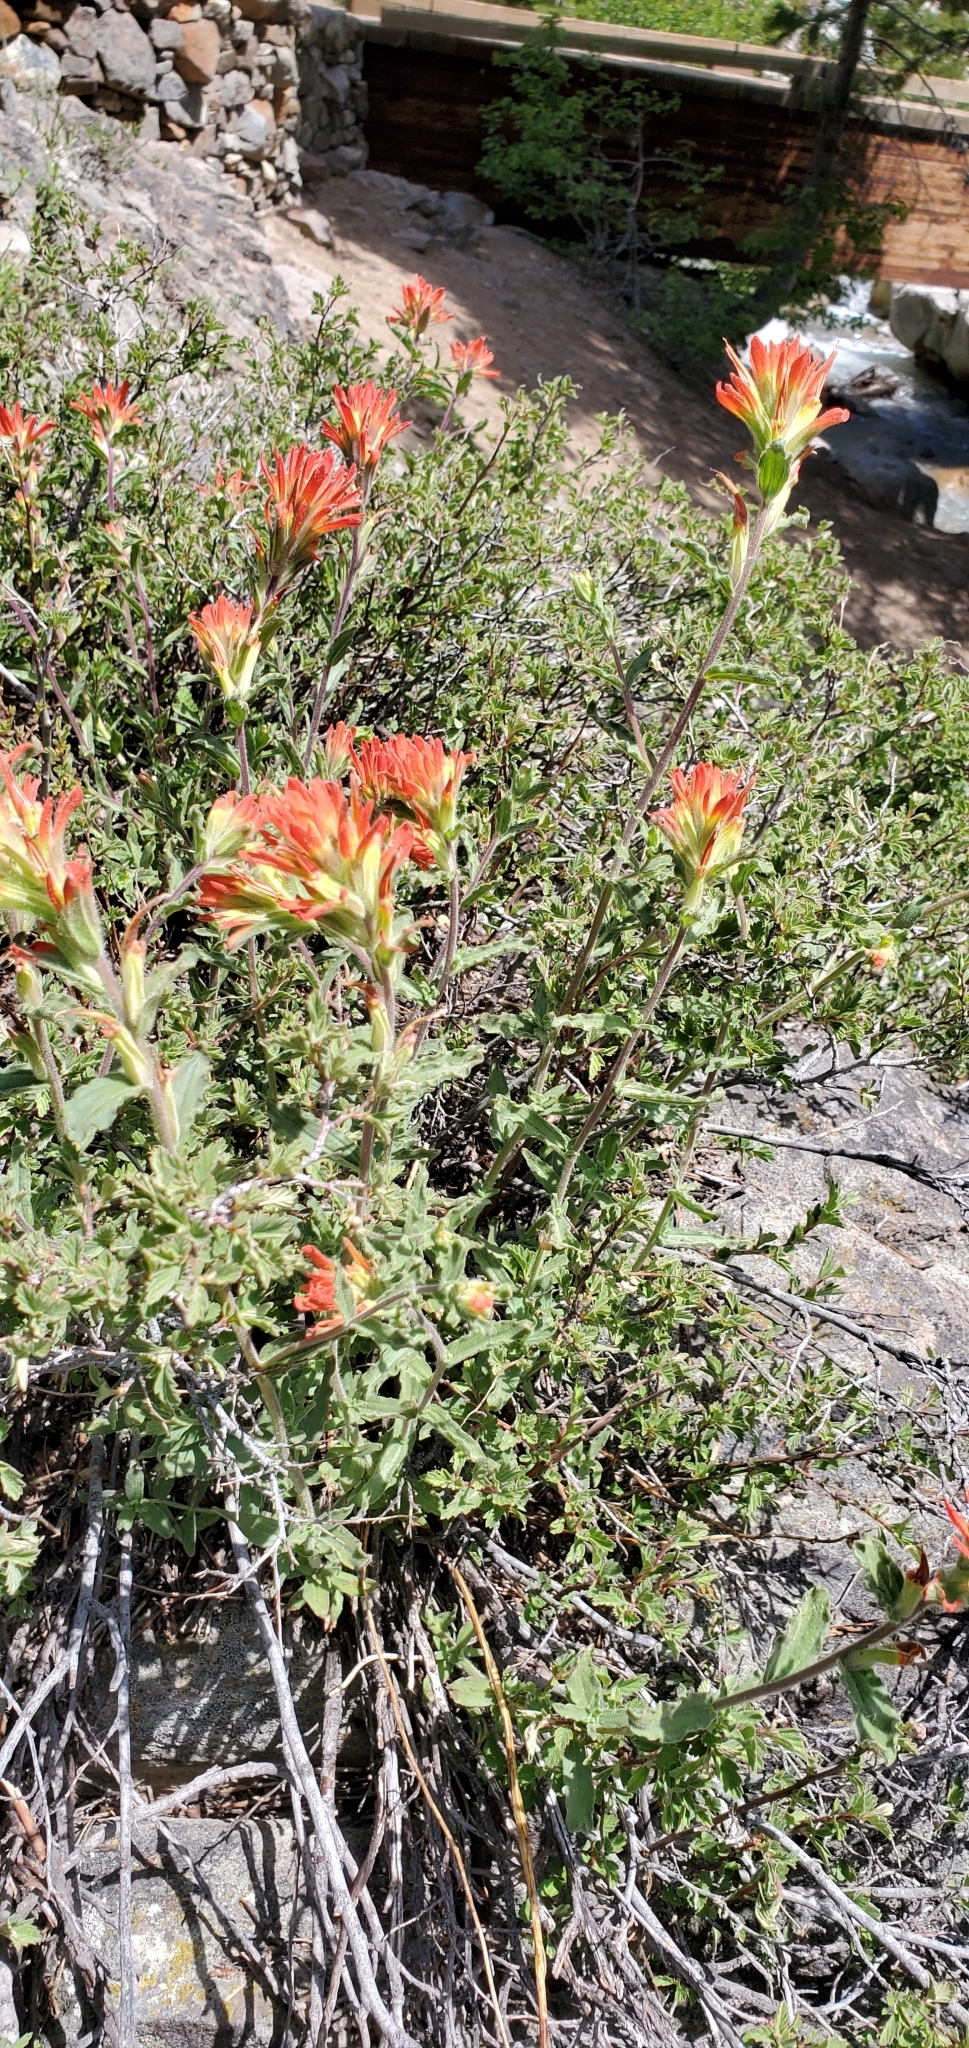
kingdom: Plantae
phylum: Tracheophyta
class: Magnoliopsida
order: Lamiales
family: Orobanchaceae
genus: Castilleja
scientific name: Castilleja applegatei
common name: Wavy-leaf paintbrush
